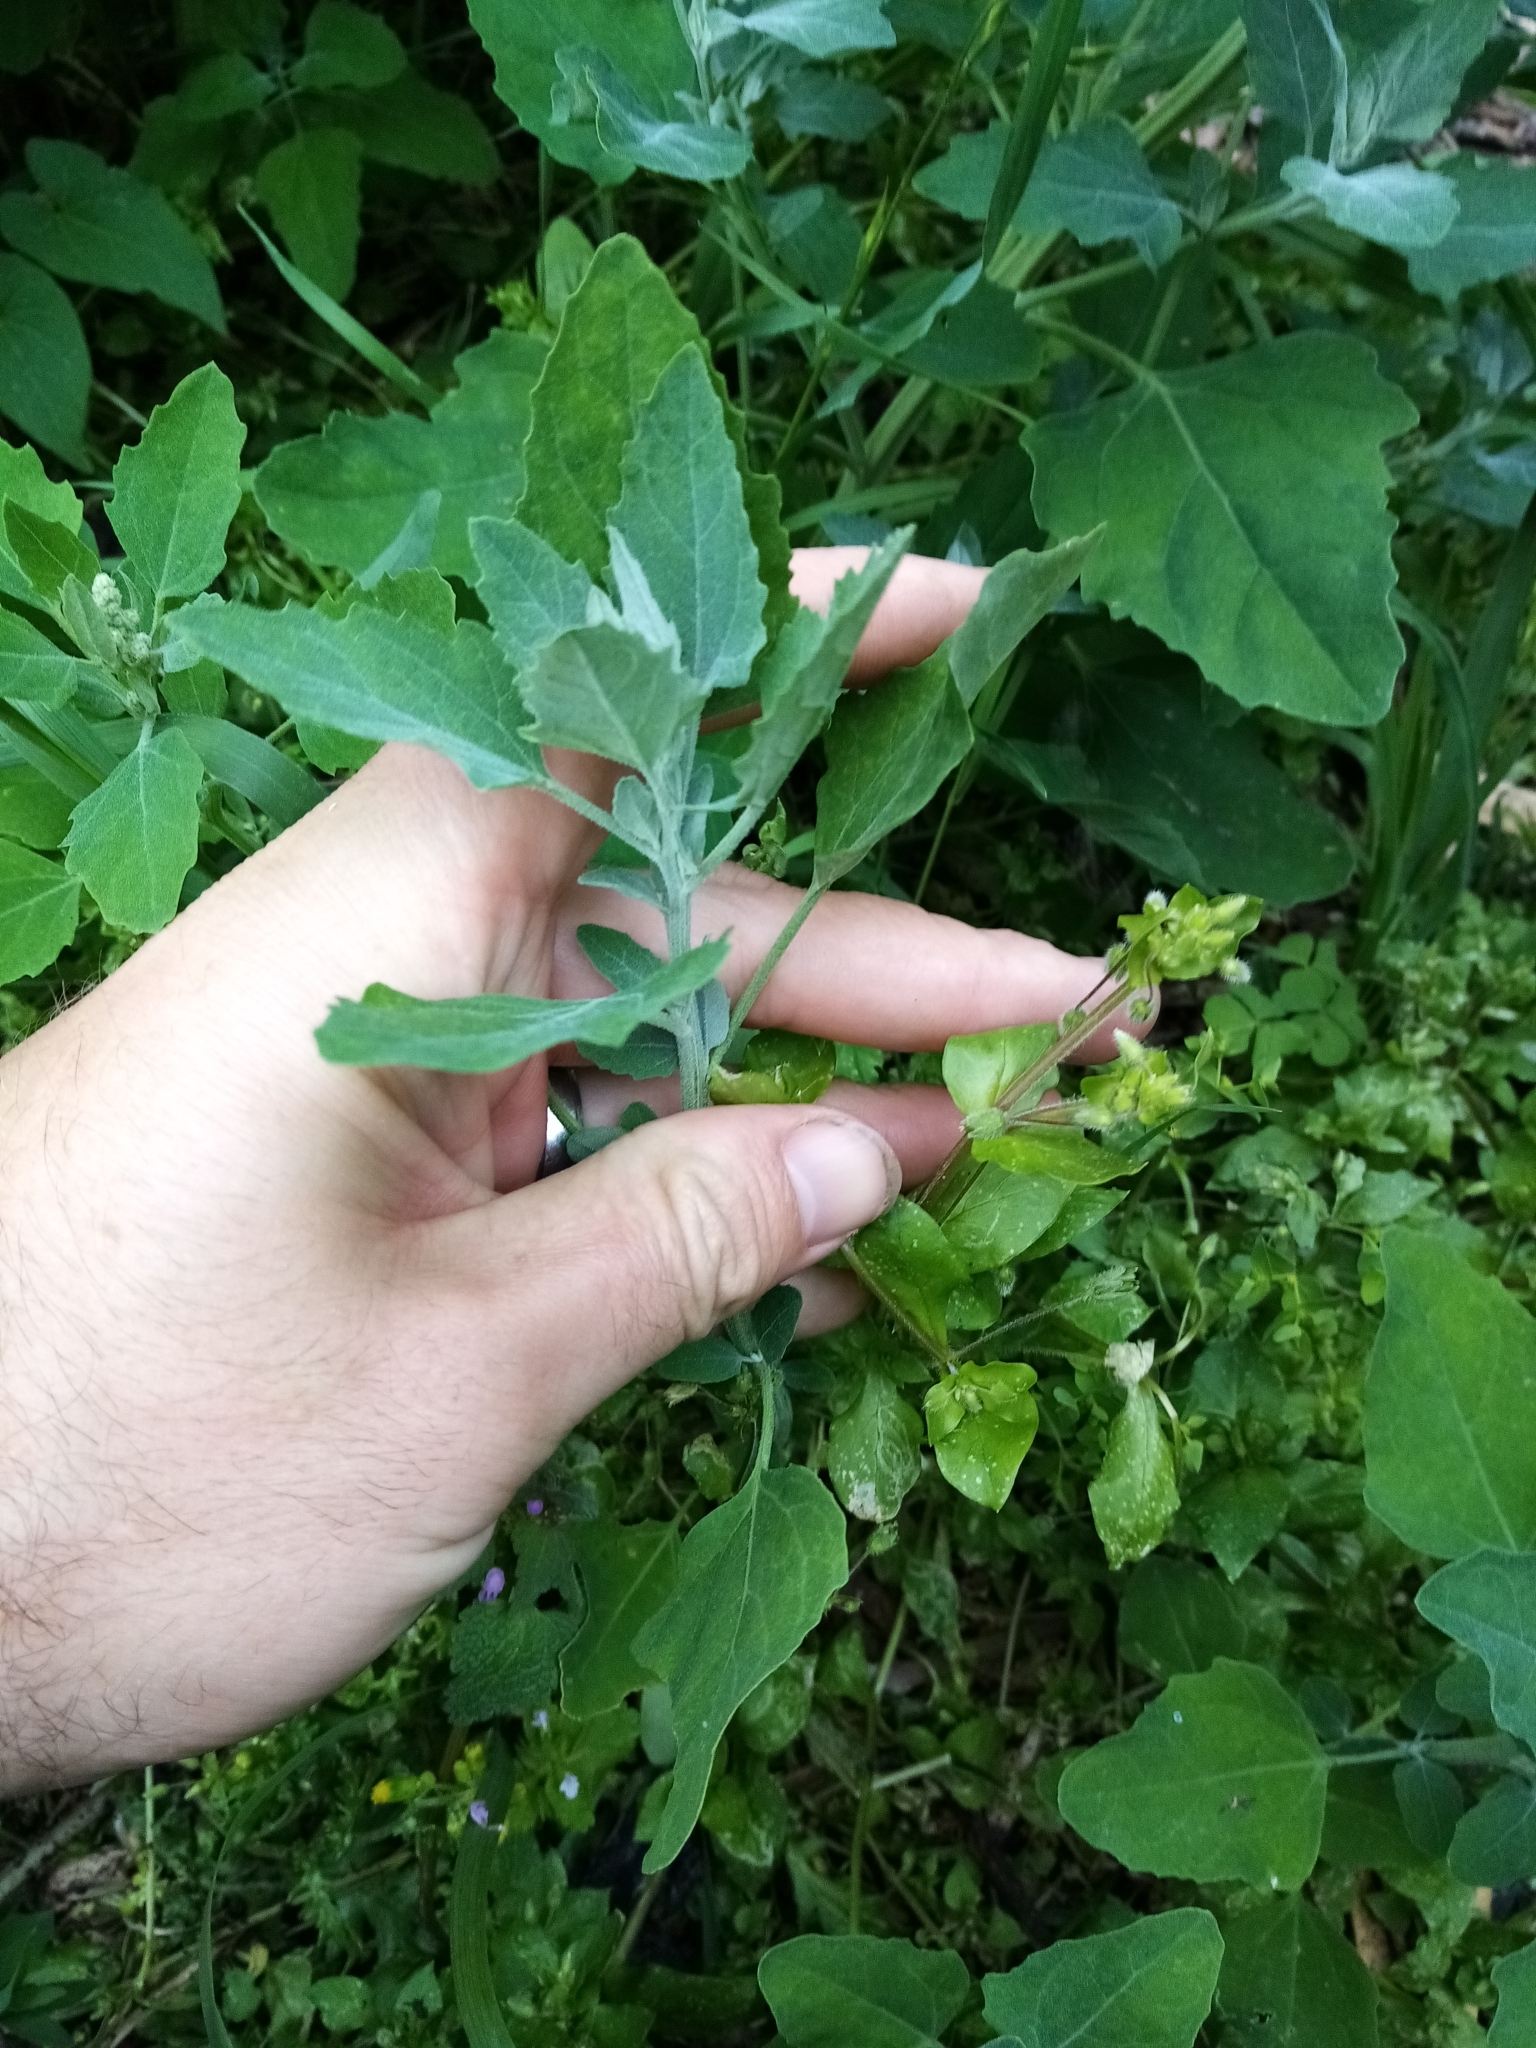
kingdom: Plantae
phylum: Tracheophyta
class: Magnoliopsida
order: Caryophyllales
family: Amaranthaceae
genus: Chenopodium
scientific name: Chenopodium album
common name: Fat-hen
